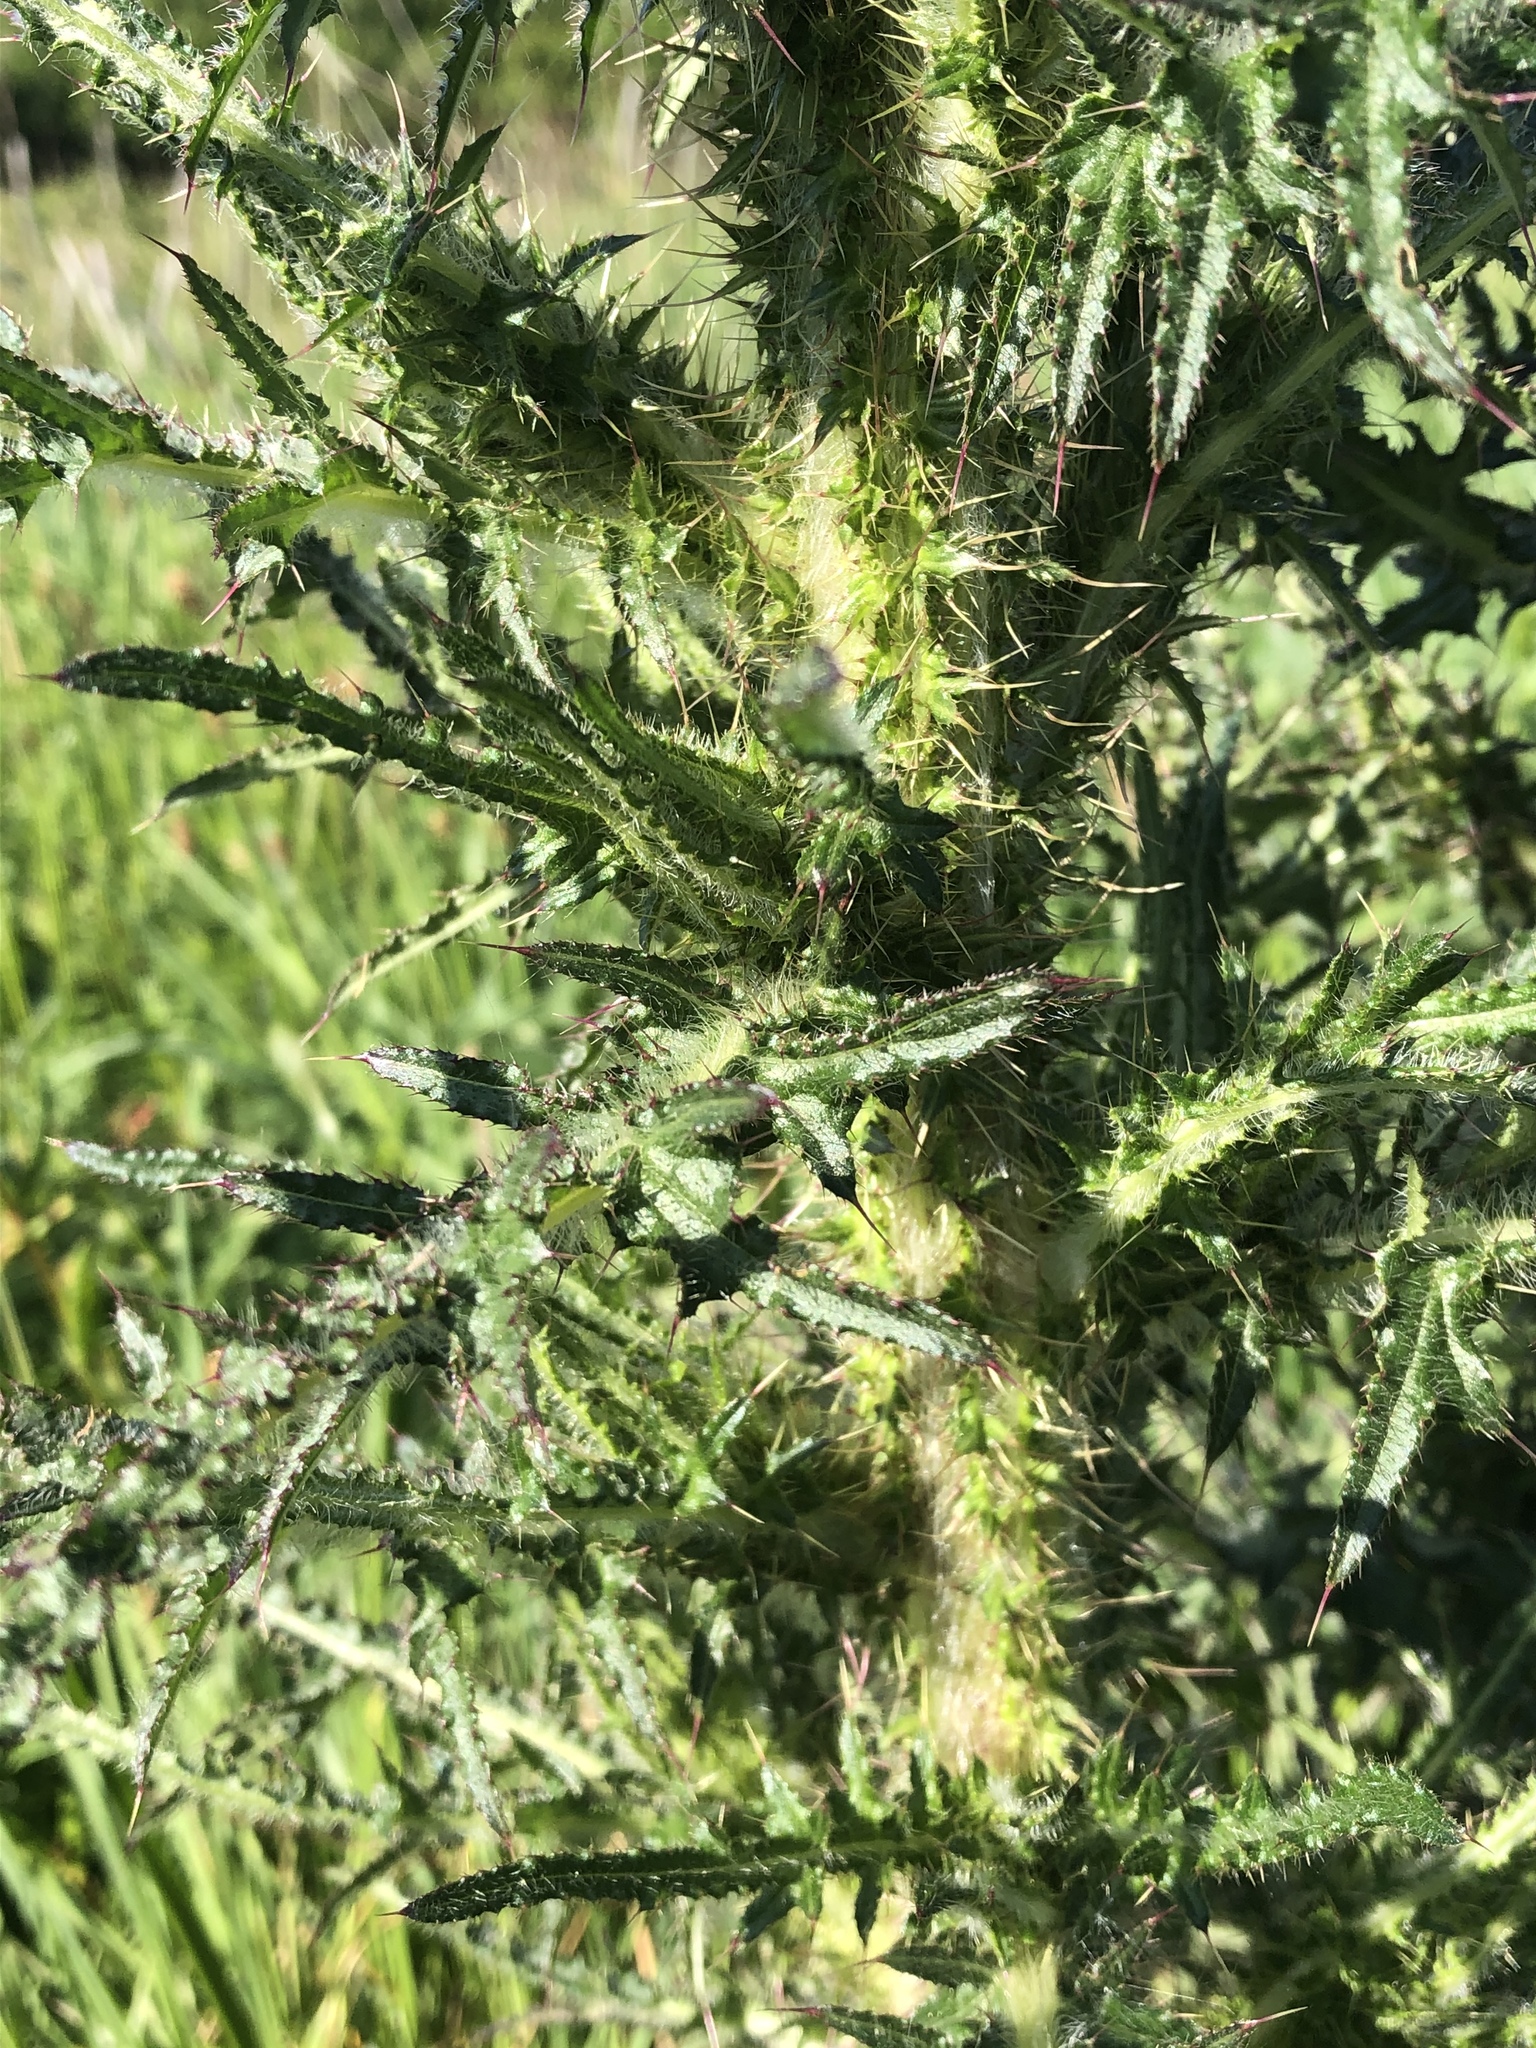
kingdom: Plantae
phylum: Tracheophyta
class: Magnoliopsida
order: Asterales
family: Asteraceae
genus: Cirsium
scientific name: Cirsium palustre
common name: Marsh thistle
